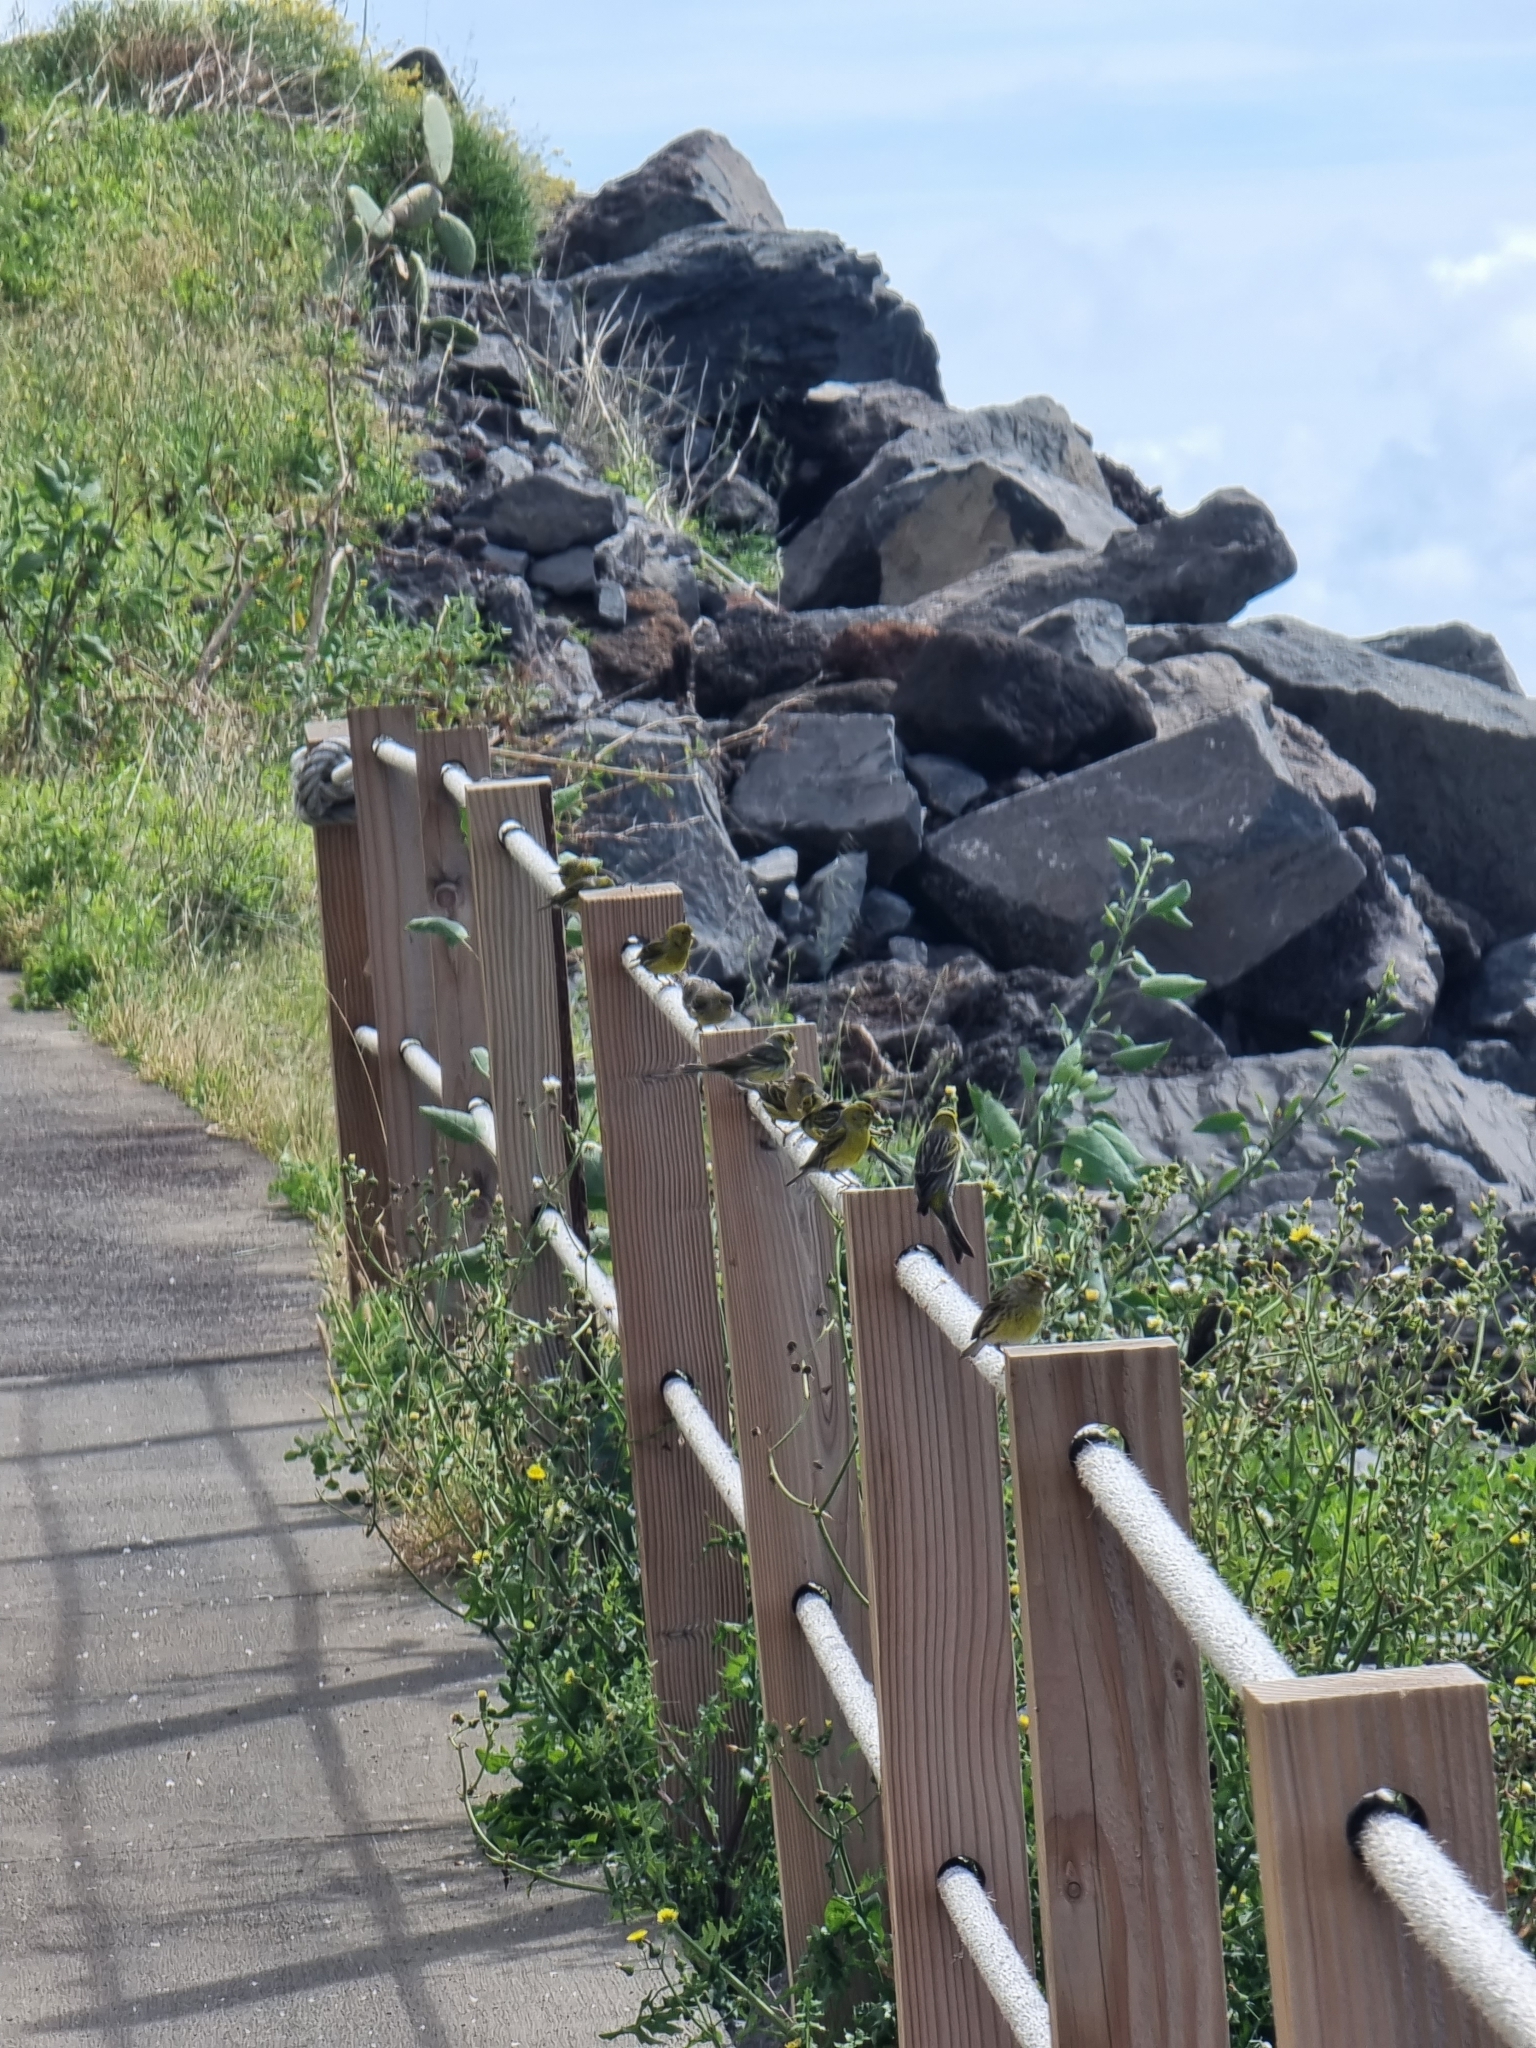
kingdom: Animalia
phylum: Chordata
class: Aves
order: Passeriformes
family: Fringillidae
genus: Serinus
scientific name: Serinus canaria
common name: Atlantic canary
